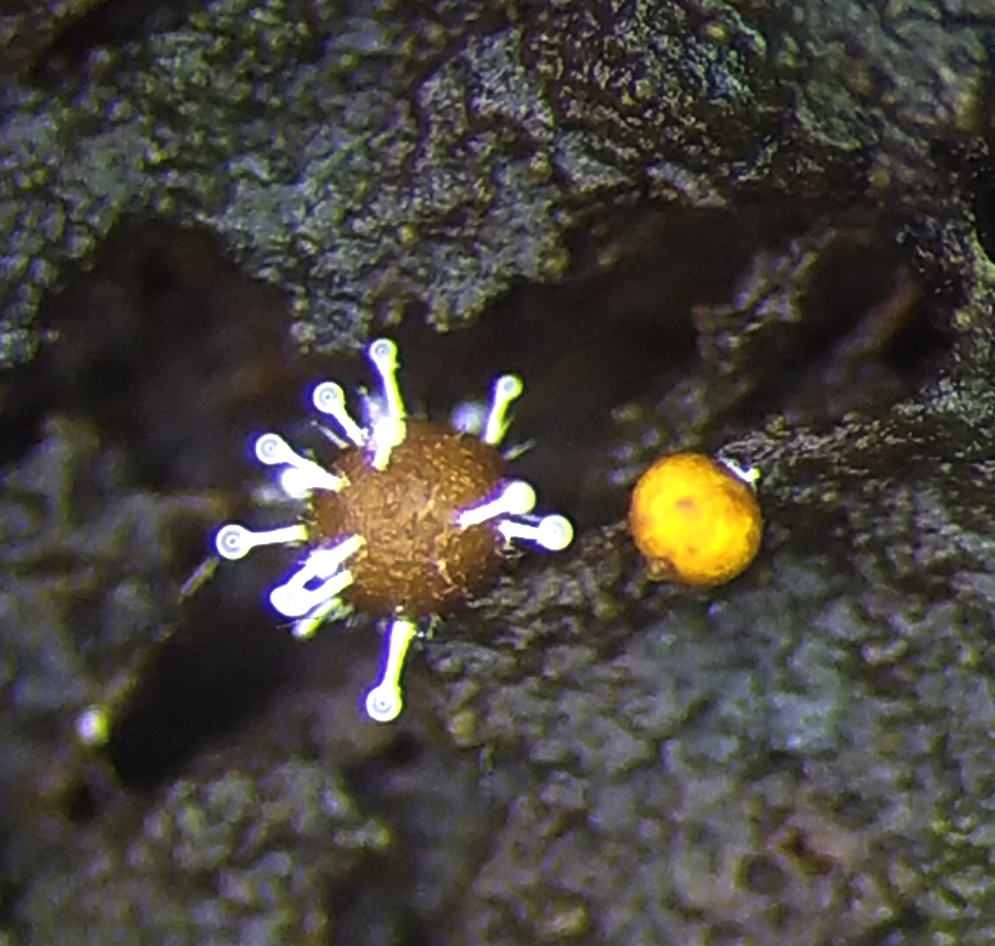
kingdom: Fungi
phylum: Ascomycota
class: Sordariomycetes
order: Hypocreales
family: Ophiocordycipitaceae
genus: Polycephalomyces
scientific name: Polycephalomyces tomentosus
